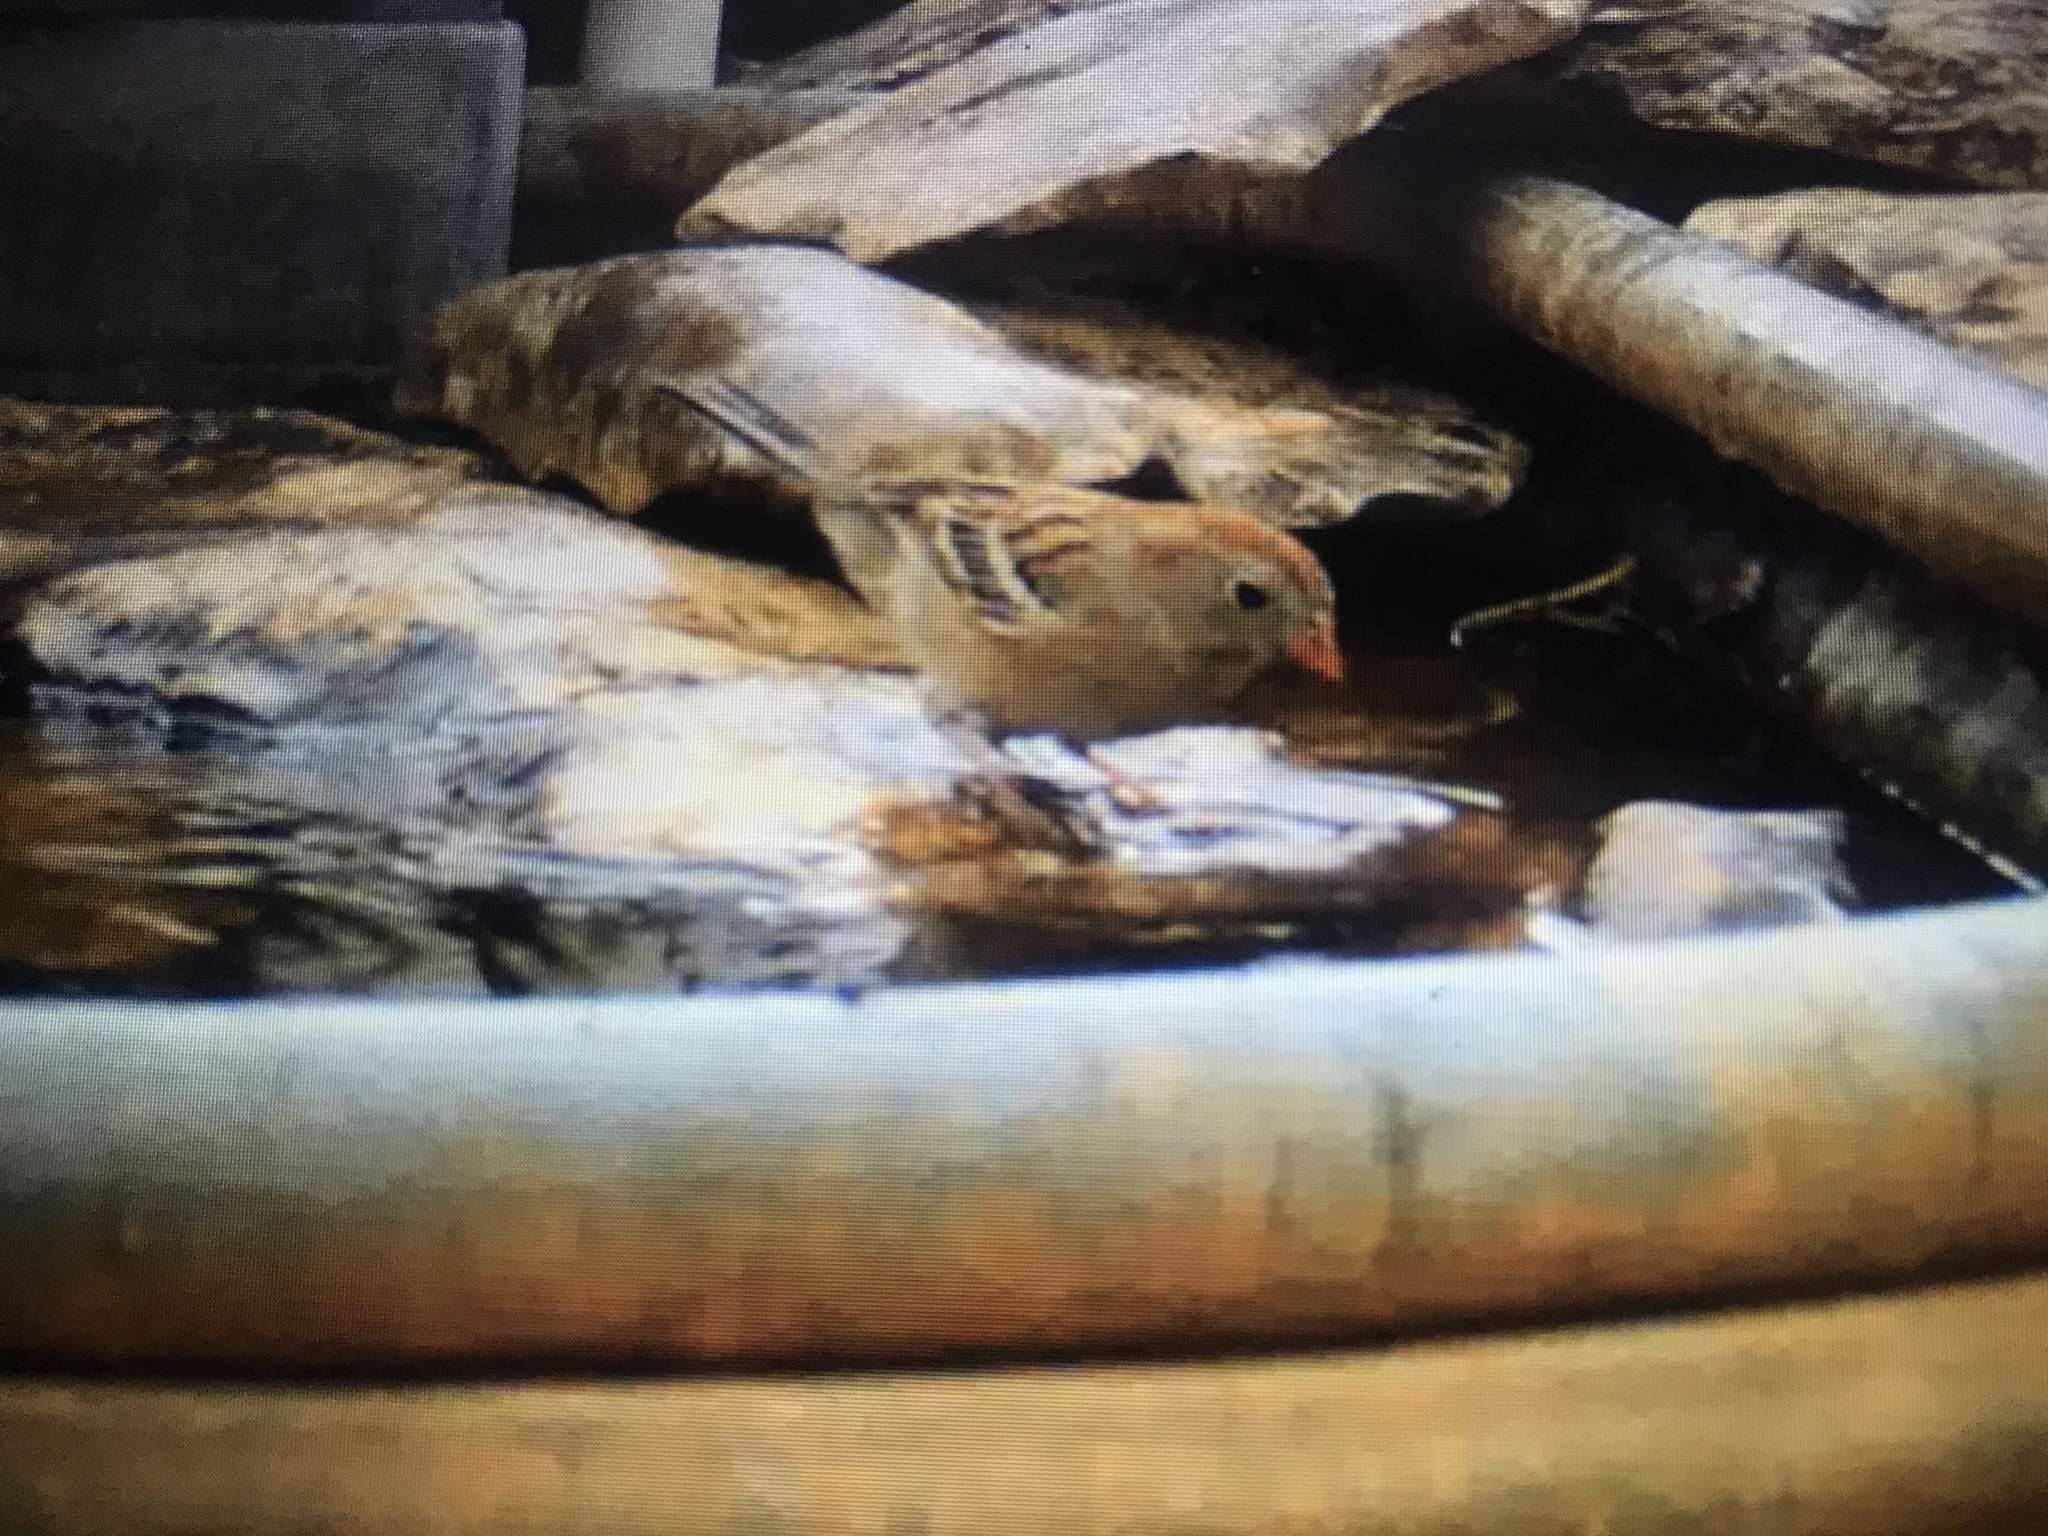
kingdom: Animalia
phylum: Chordata
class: Aves
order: Passeriformes
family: Passerellidae
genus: Spizella
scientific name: Spizella pusilla
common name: Field sparrow
